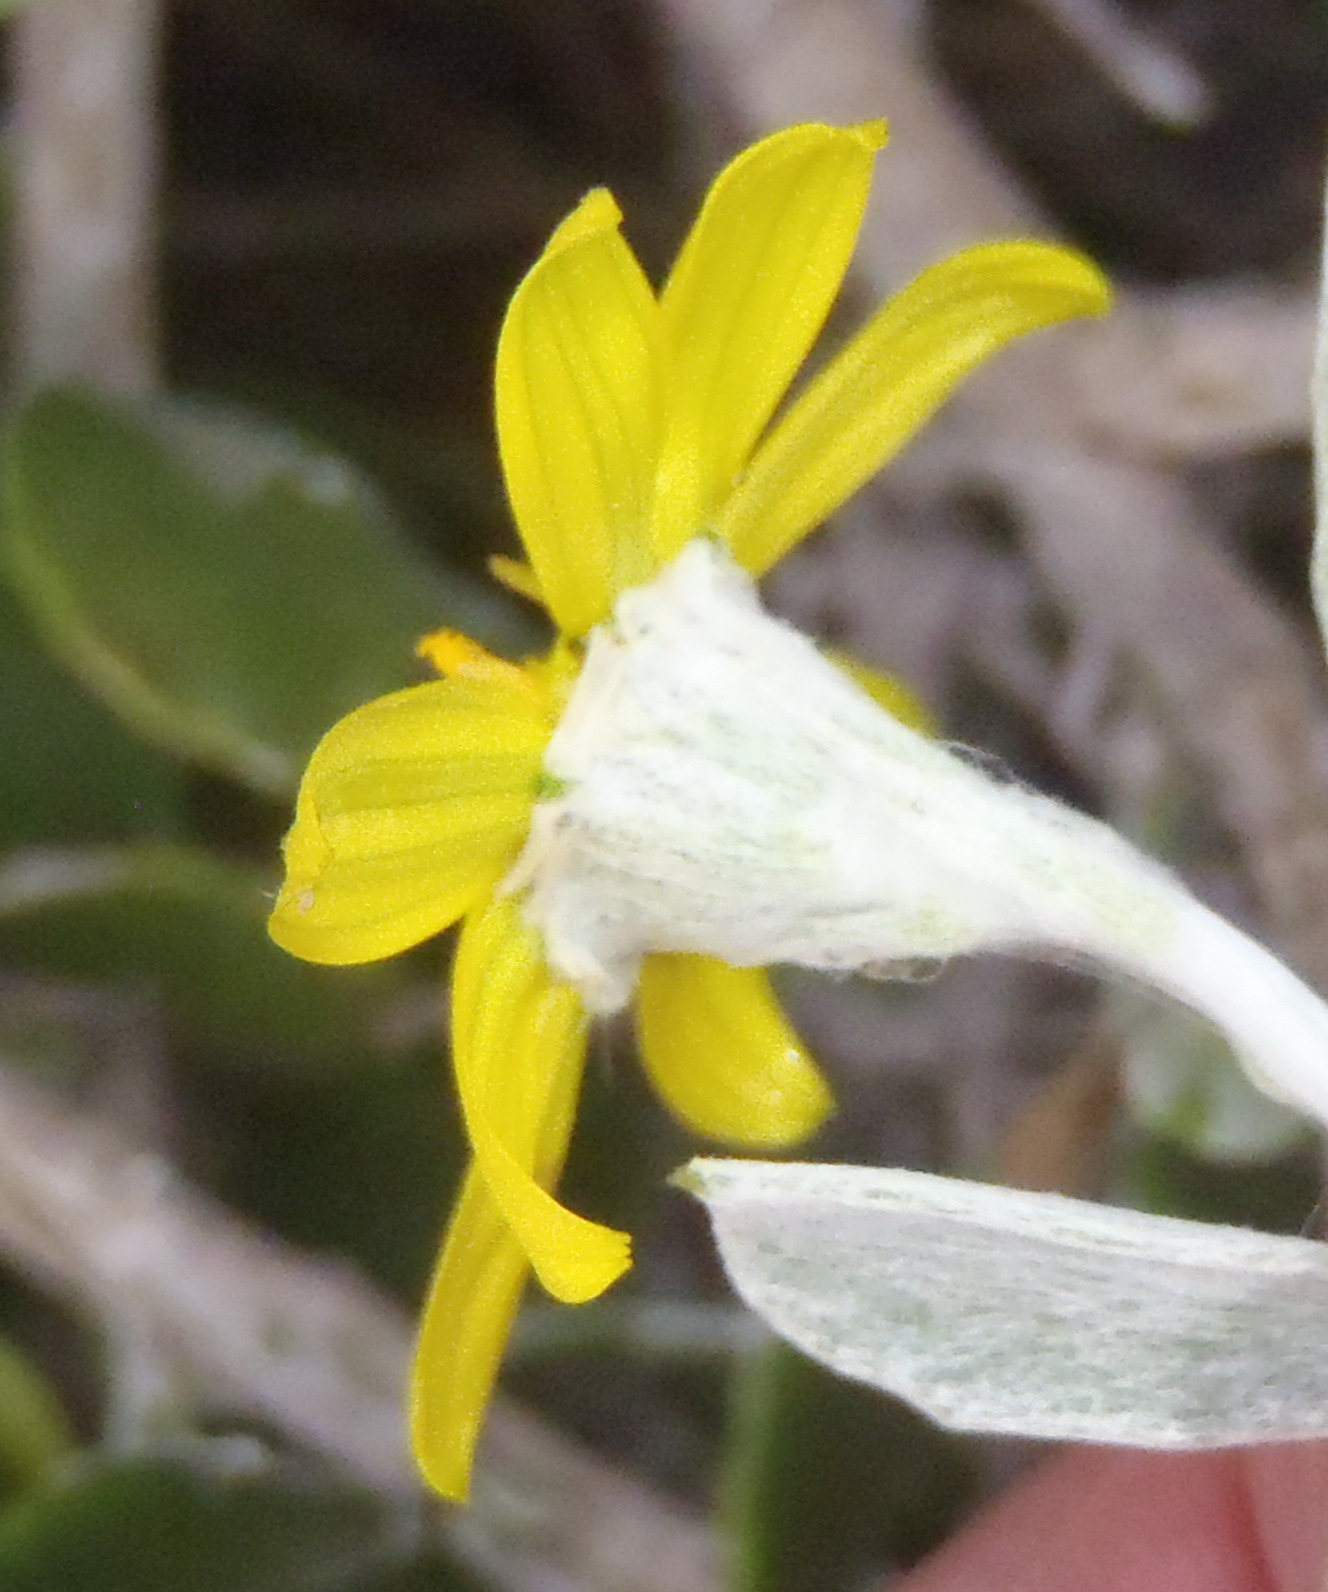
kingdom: Plantae
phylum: Tracheophyta
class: Magnoliopsida
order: Asterales
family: Asteraceae
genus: Osteospermum
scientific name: Osteospermum incanum
